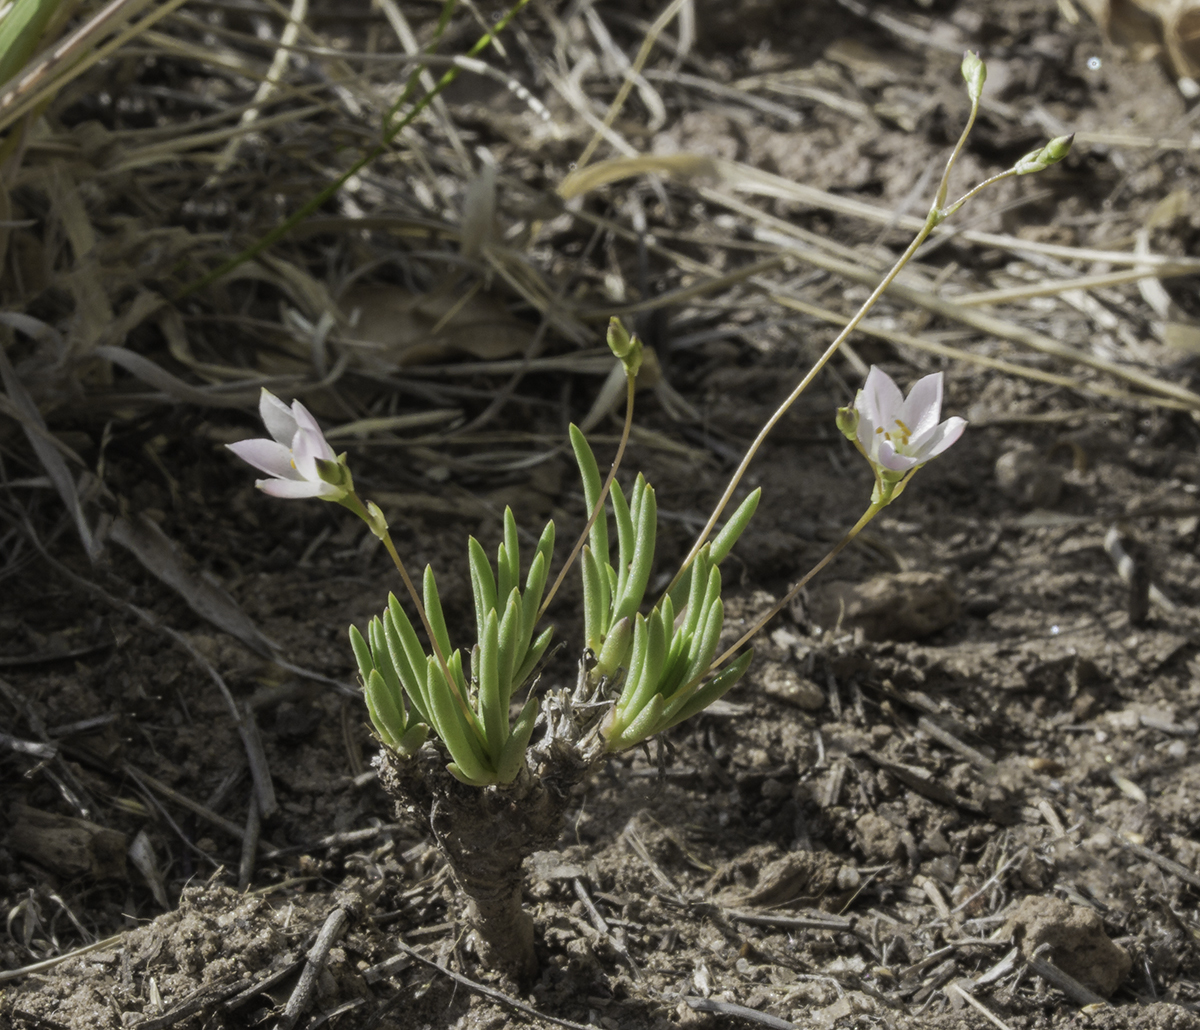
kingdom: Plantae
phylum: Tracheophyta
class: Magnoliopsida
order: Caryophyllales
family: Montiaceae
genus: Phemeranthus
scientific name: Phemeranthus confertiflorus
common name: New mexico fameflower
